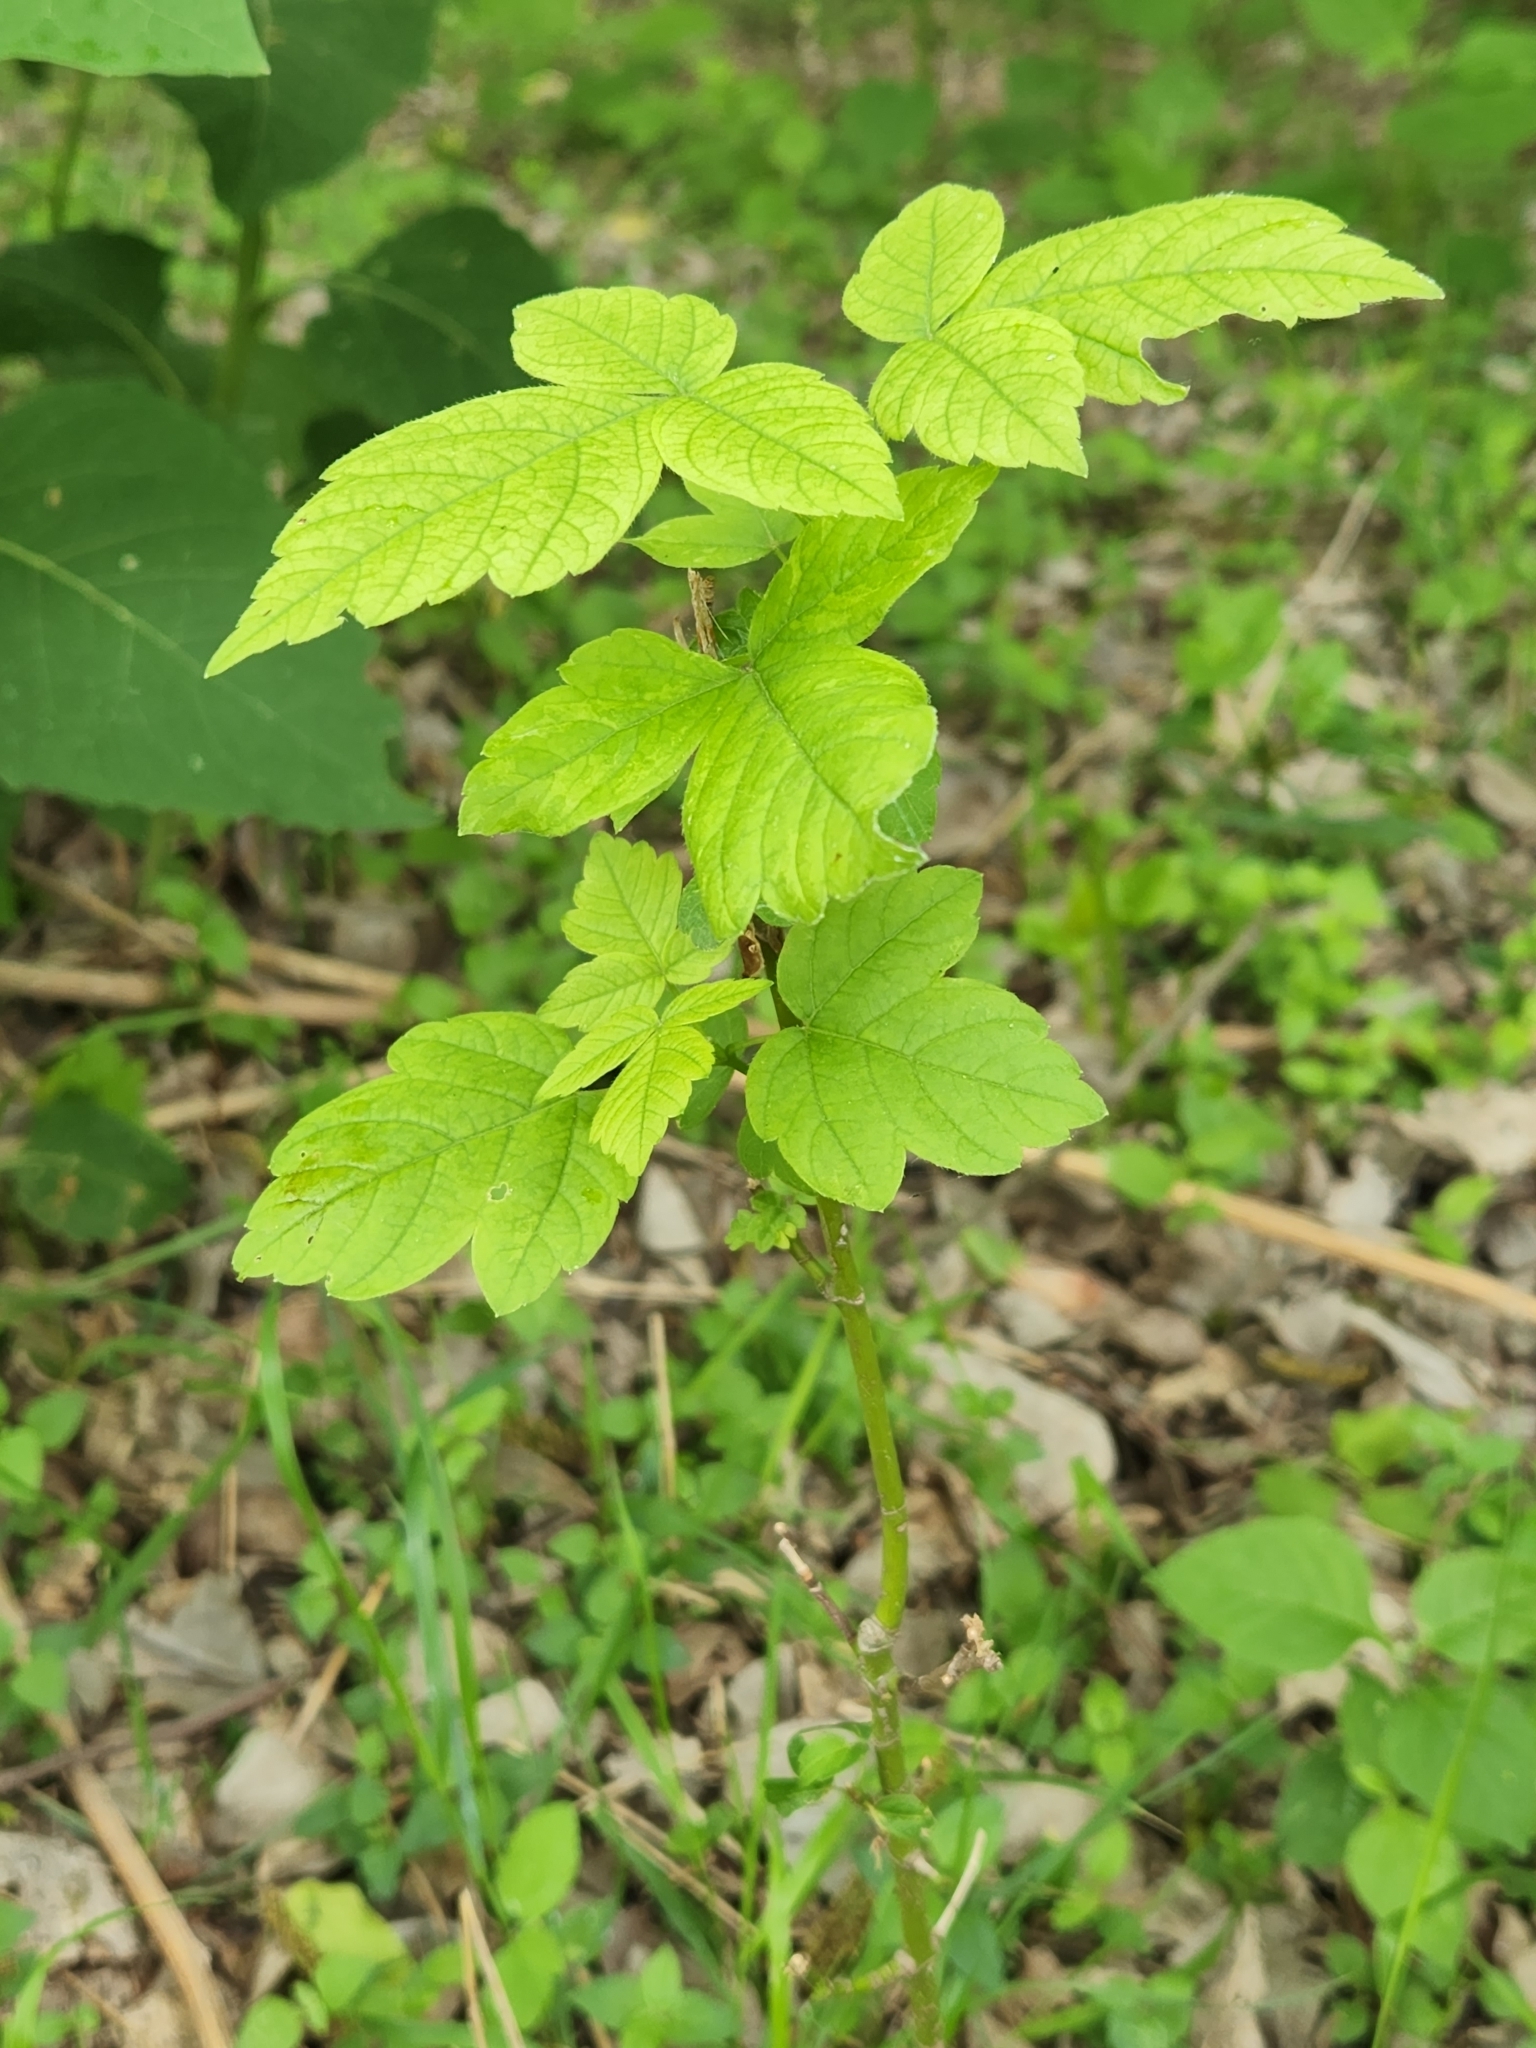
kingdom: Plantae
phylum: Tracheophyta
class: Magnoliopsida
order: Sapindales
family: Sapindaceae
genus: Acer
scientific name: Acer negundo
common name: Ashleaf maple
